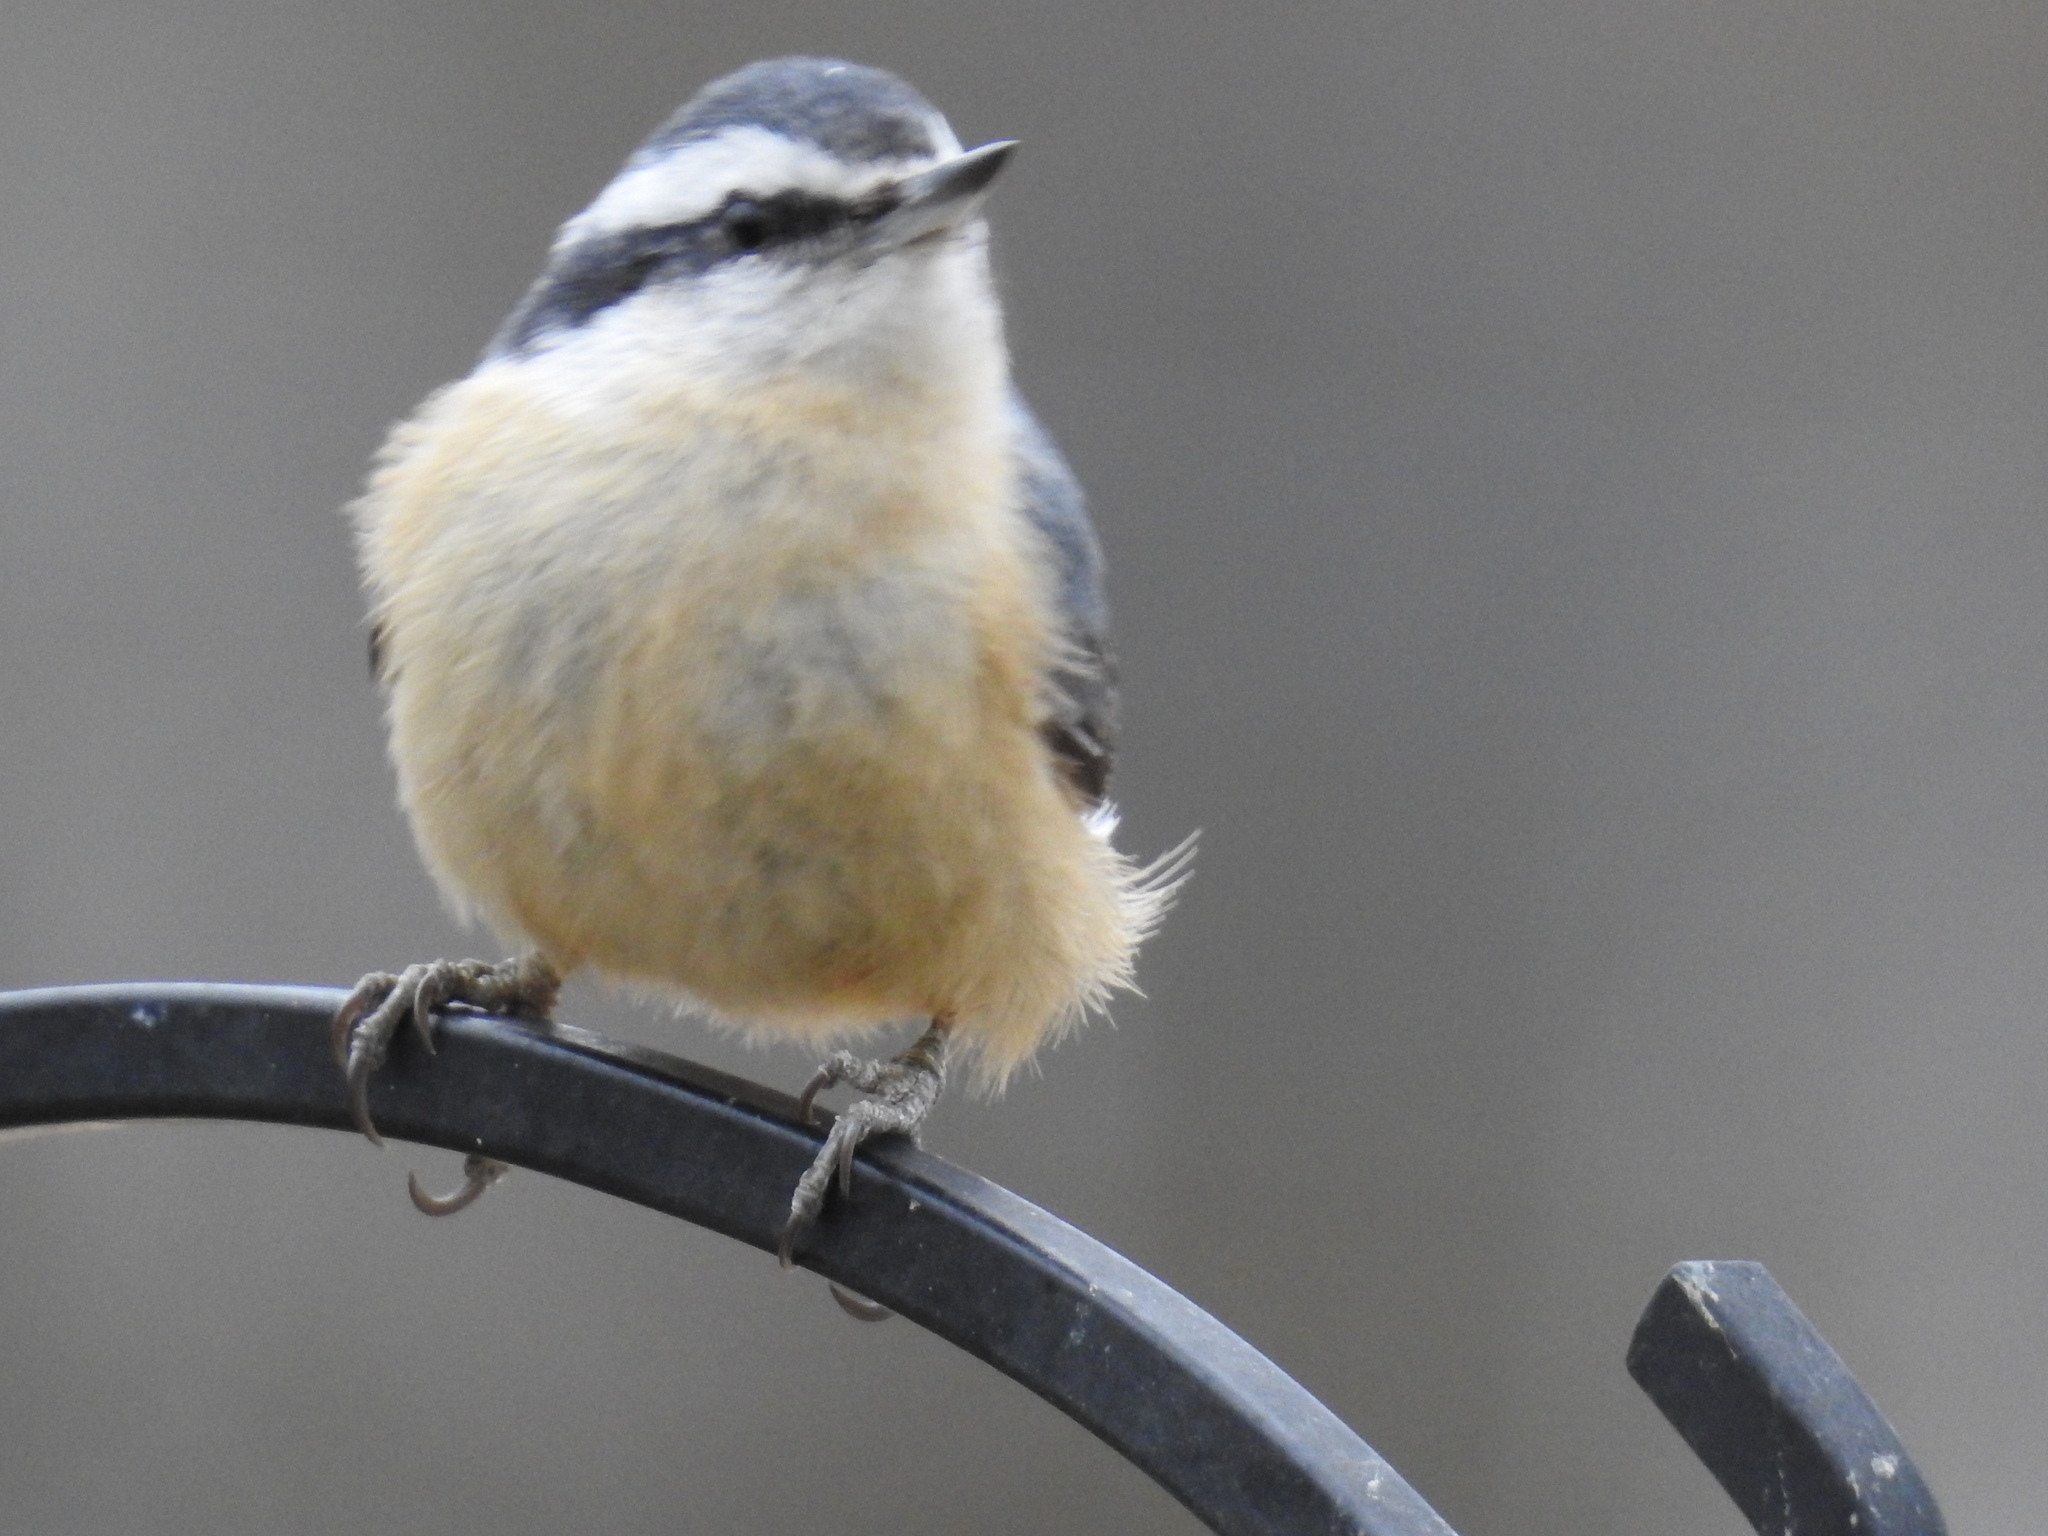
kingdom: Animalia
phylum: Chordata
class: Aves
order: Passeriformes
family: Sittidae
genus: Sitta
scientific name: Sitta canadensis
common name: Red-breasted nuthatch
